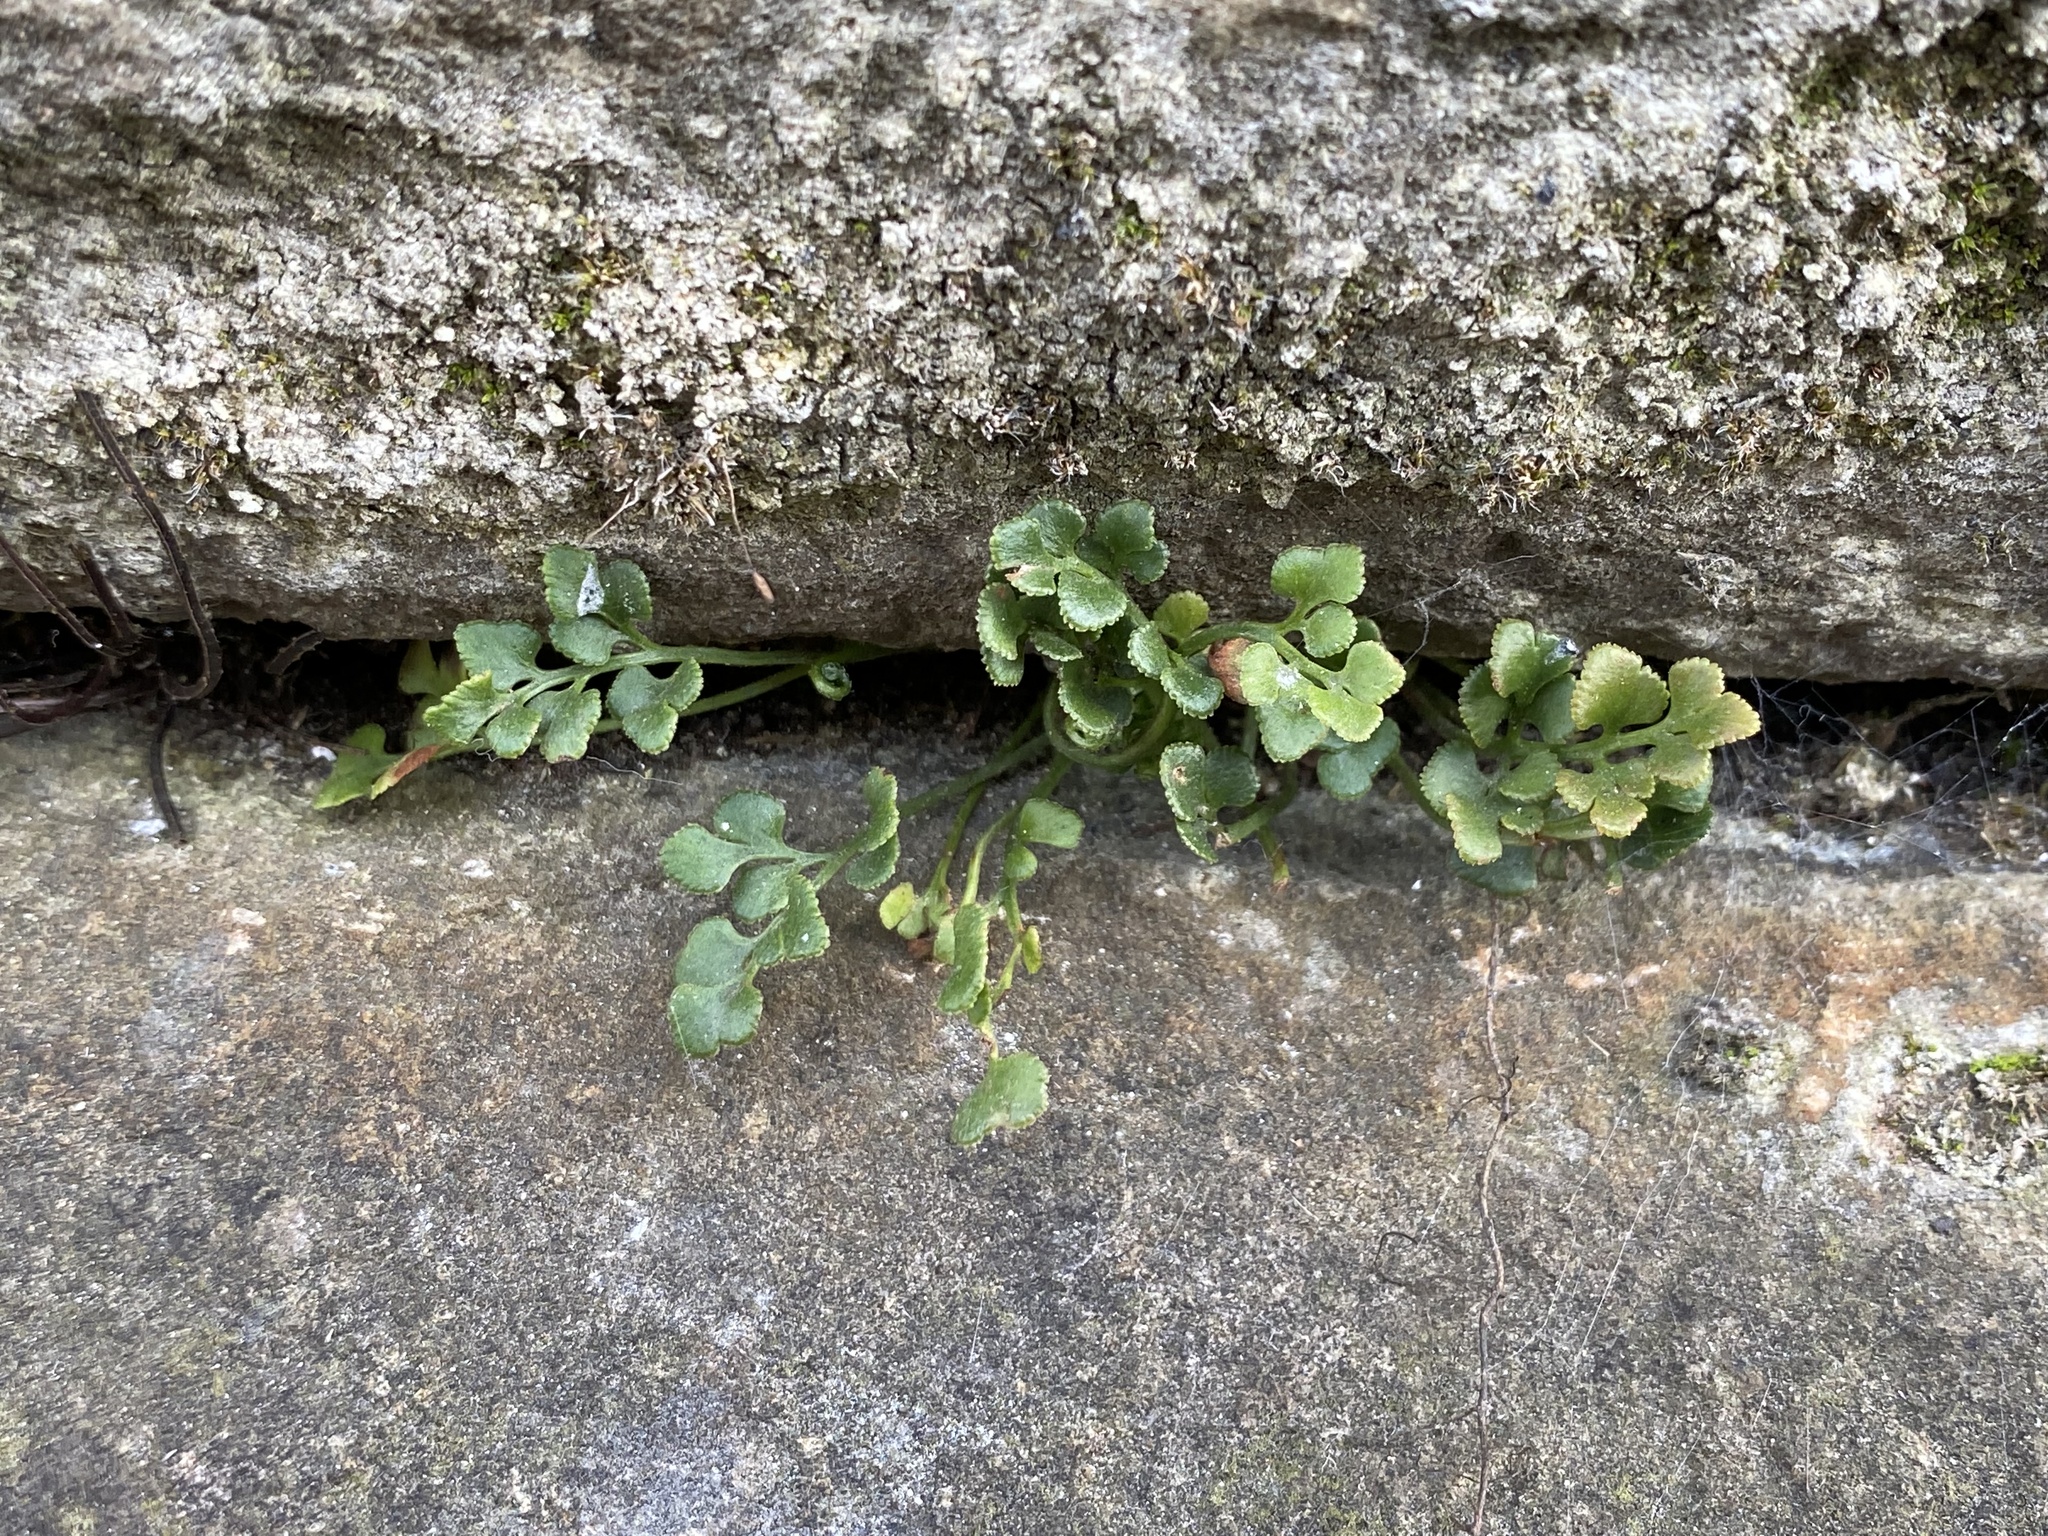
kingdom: Plantae
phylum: Tracheophyta
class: Polypodiopsida
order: Polypodiales
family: Aspleniaceae
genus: Asplenium
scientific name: Asplenium ruta-muraria
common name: Wall-rue
